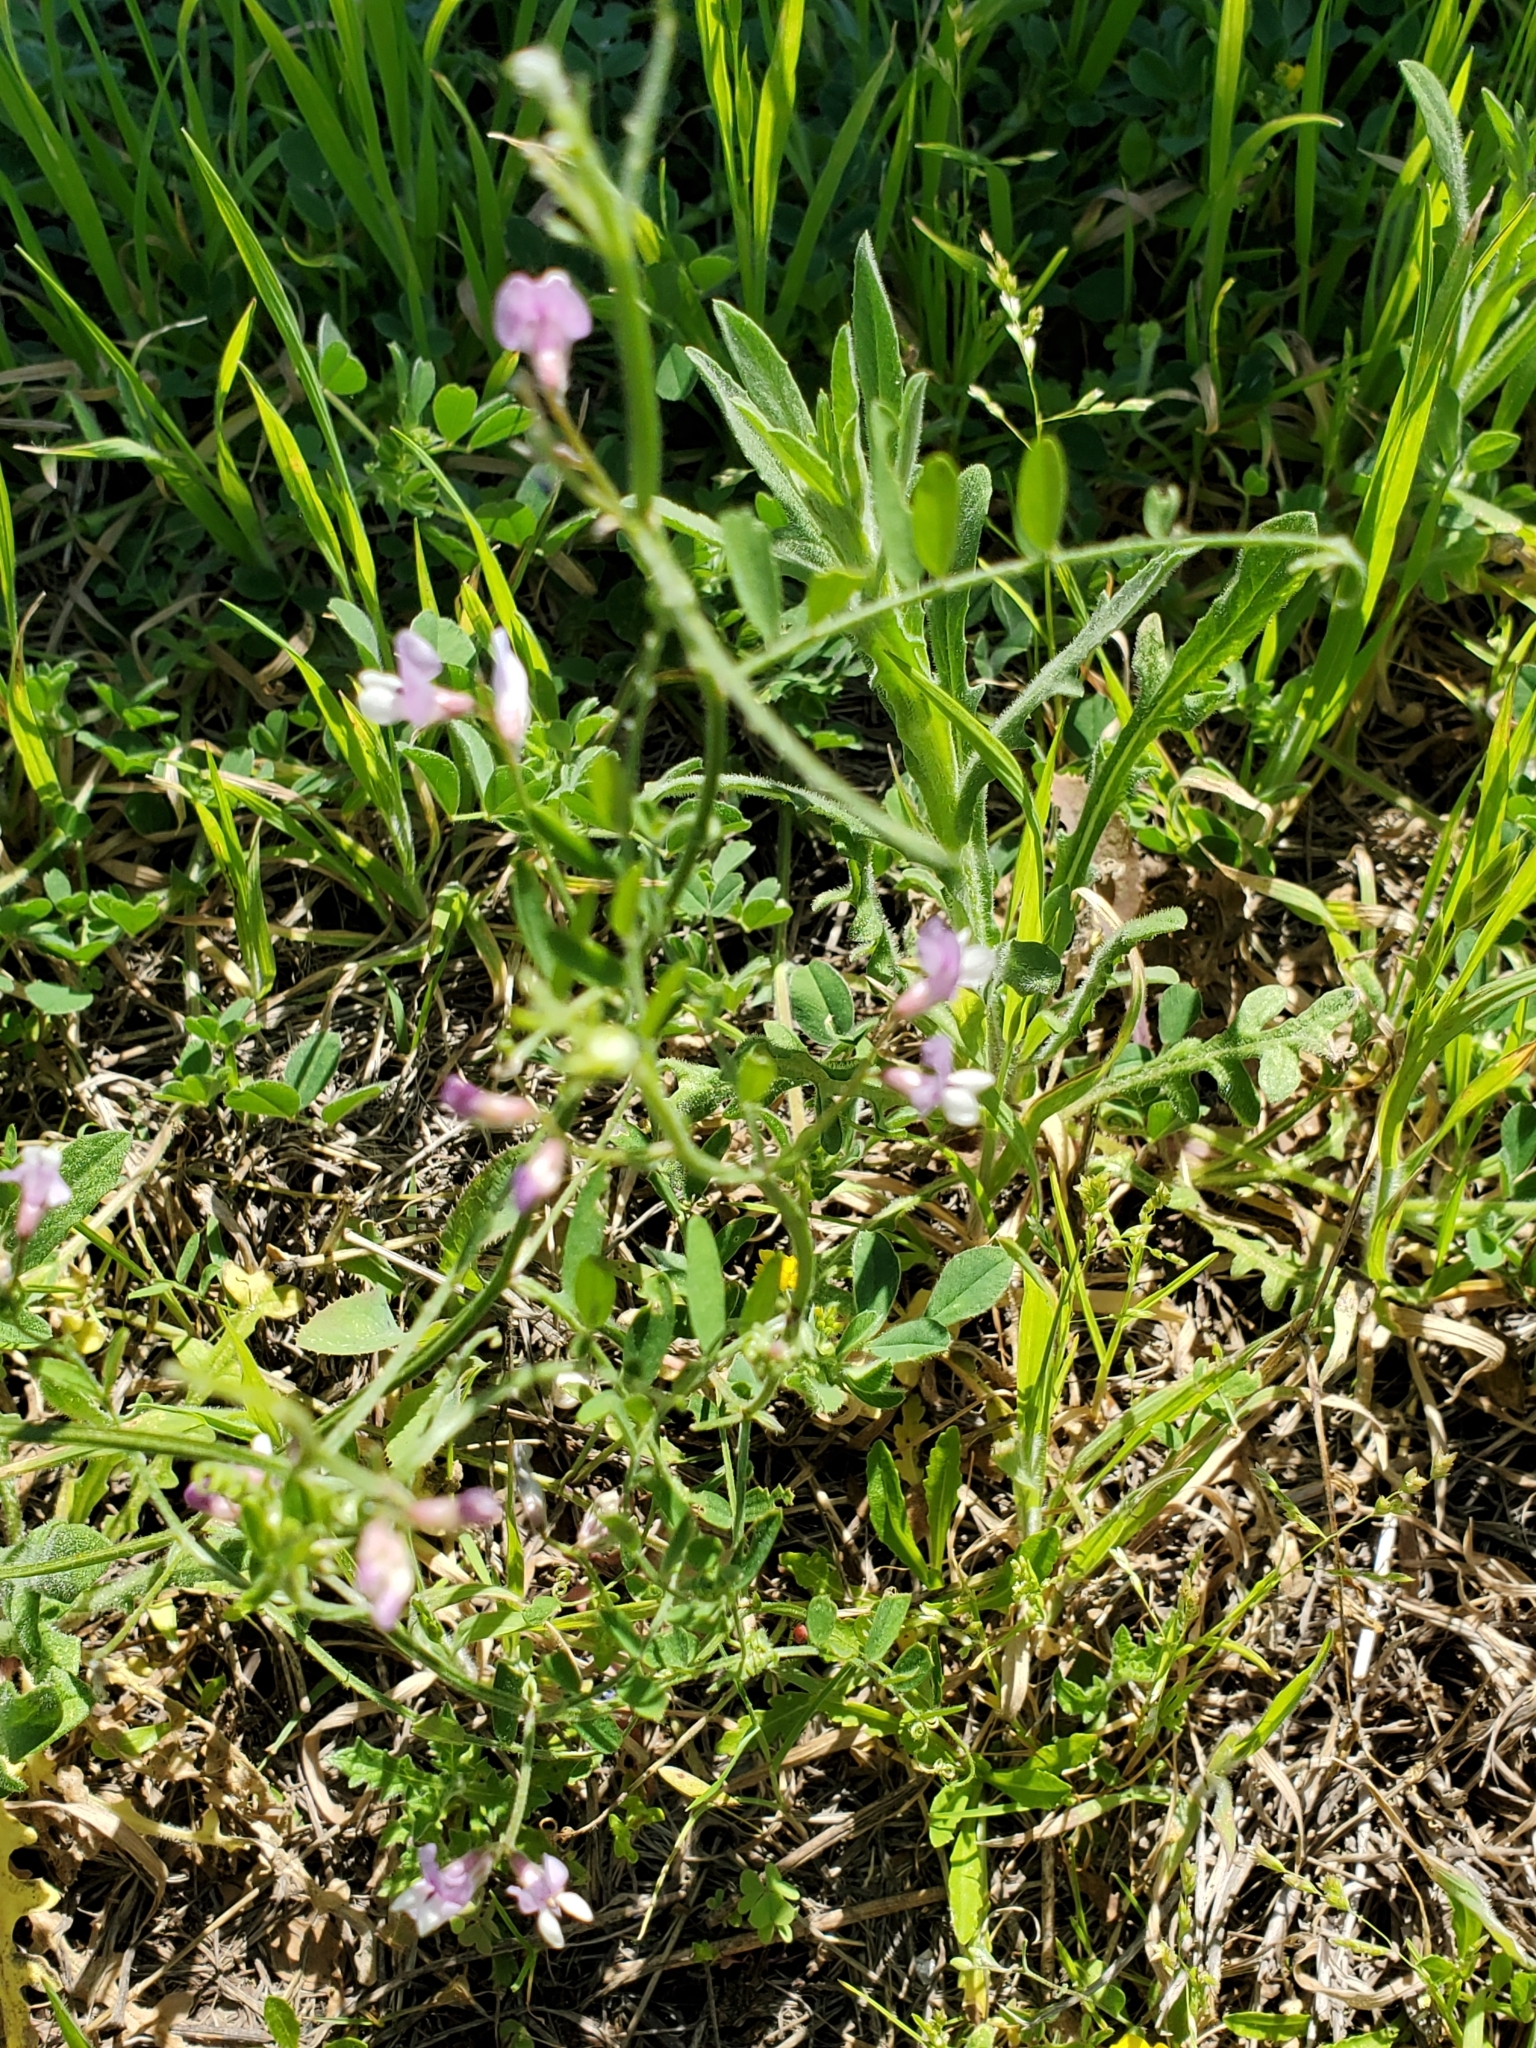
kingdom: Plantae
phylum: Tracheophyta
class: Magnoliopsida
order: Fabales
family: Fabaceae
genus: Vicia
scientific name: Vicia ludoviciana
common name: Louisiana vetch
